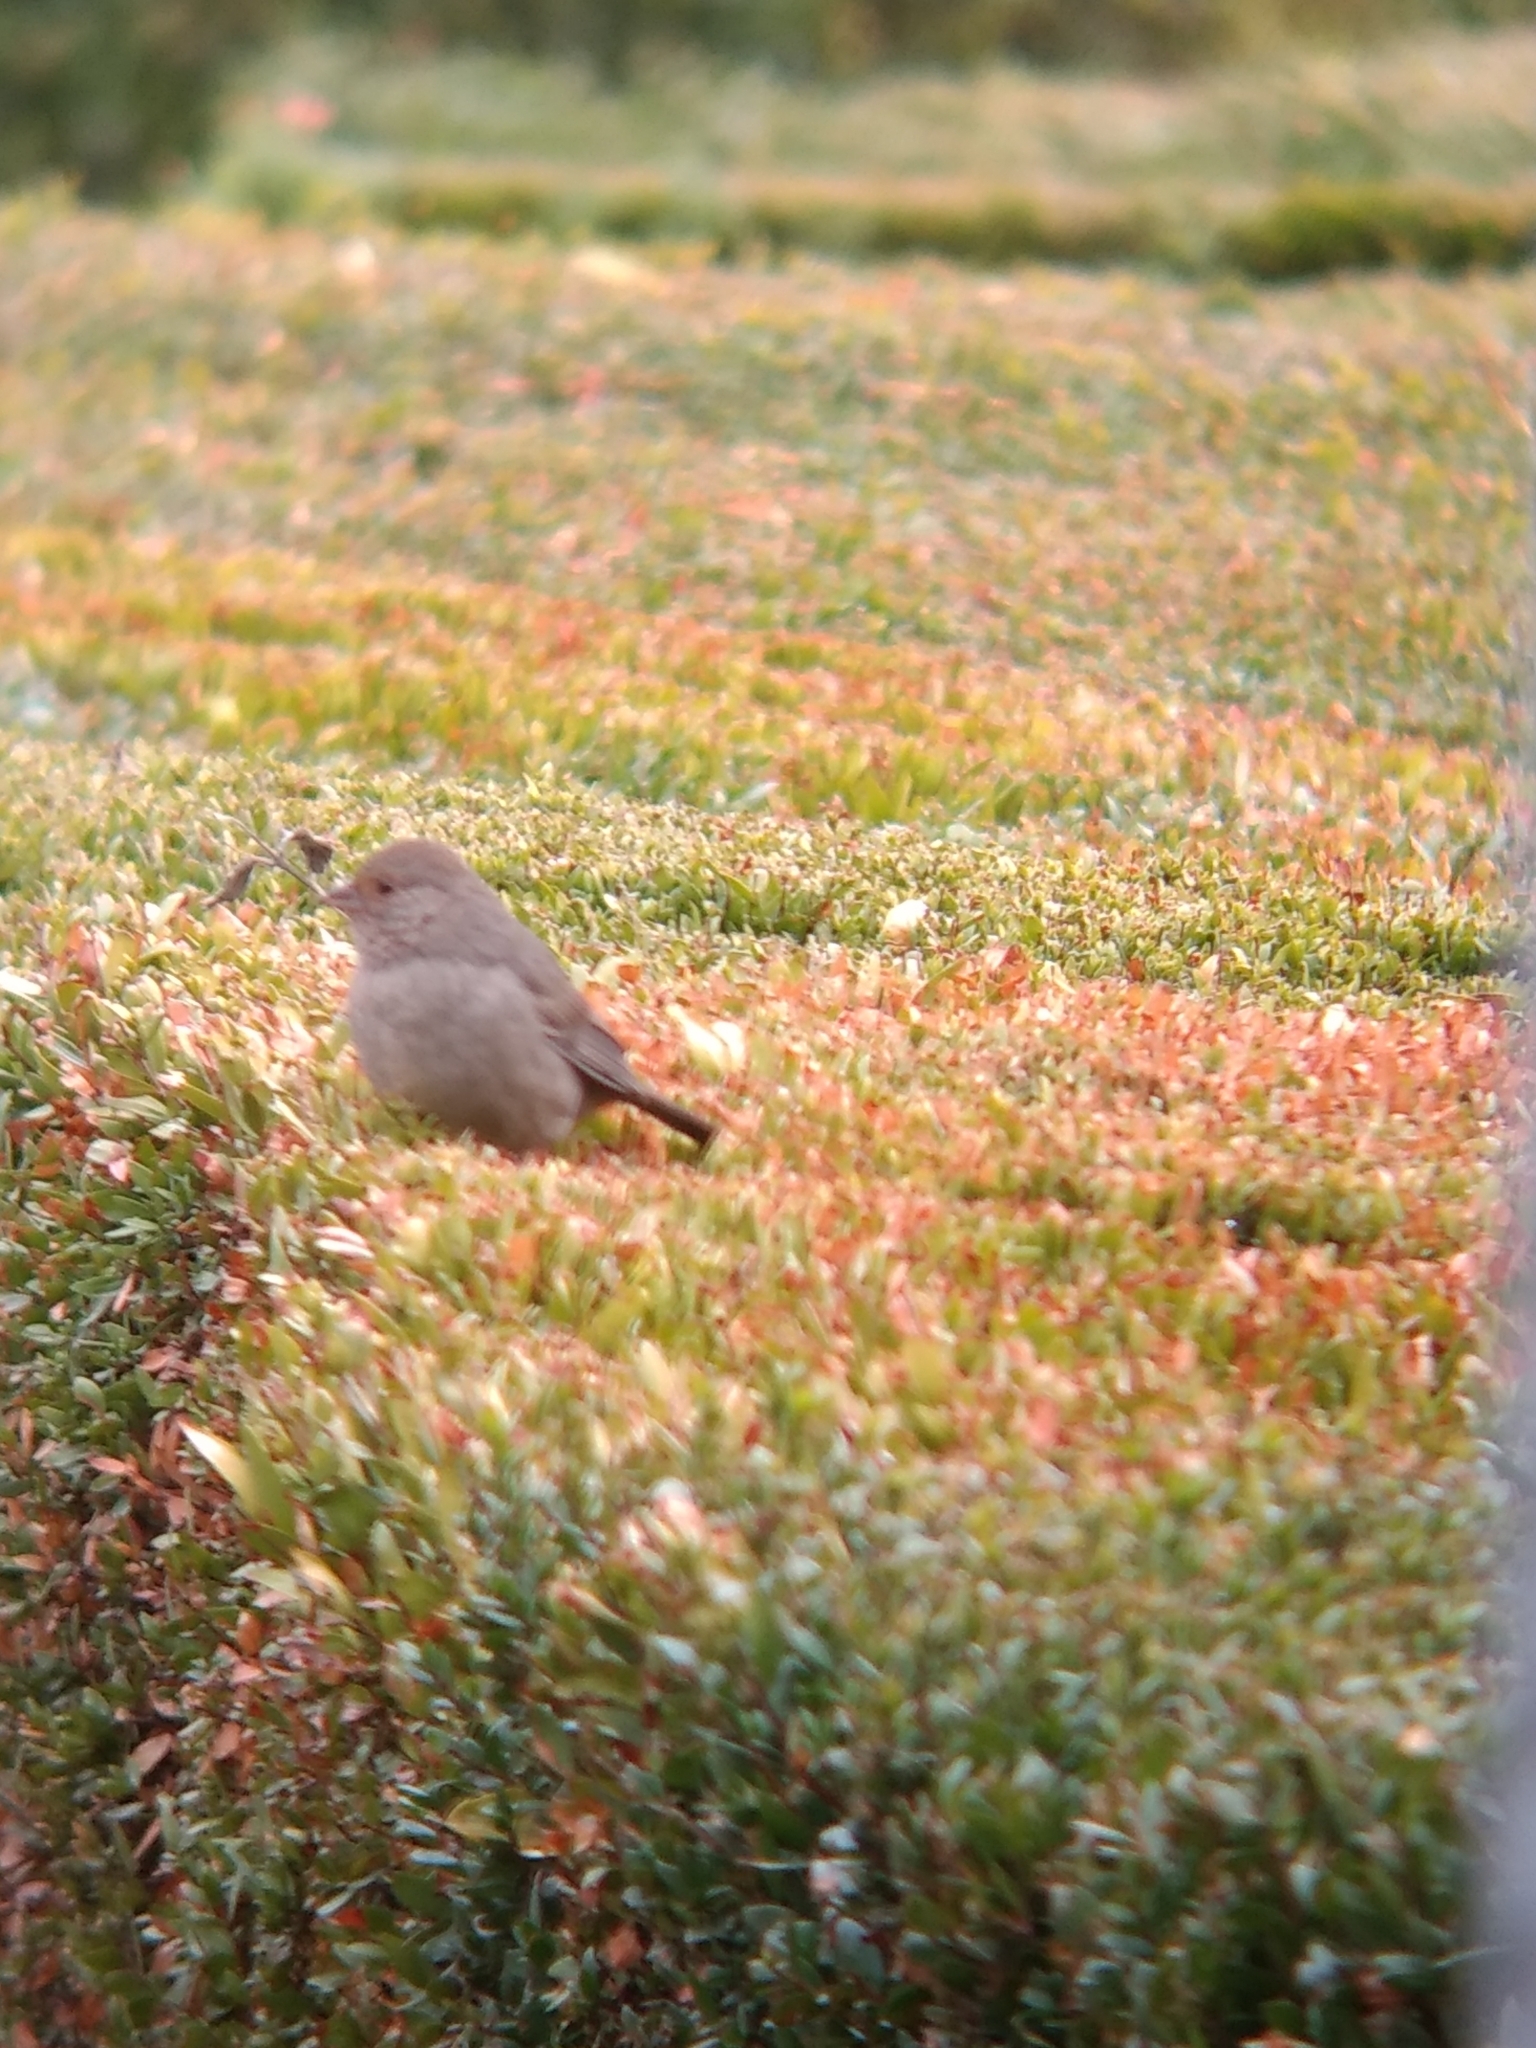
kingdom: Animalia
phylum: Chordata
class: Aves
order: Passeriformes
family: Passerellidae
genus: Melozone
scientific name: Melozone crissalis
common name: California towhee
